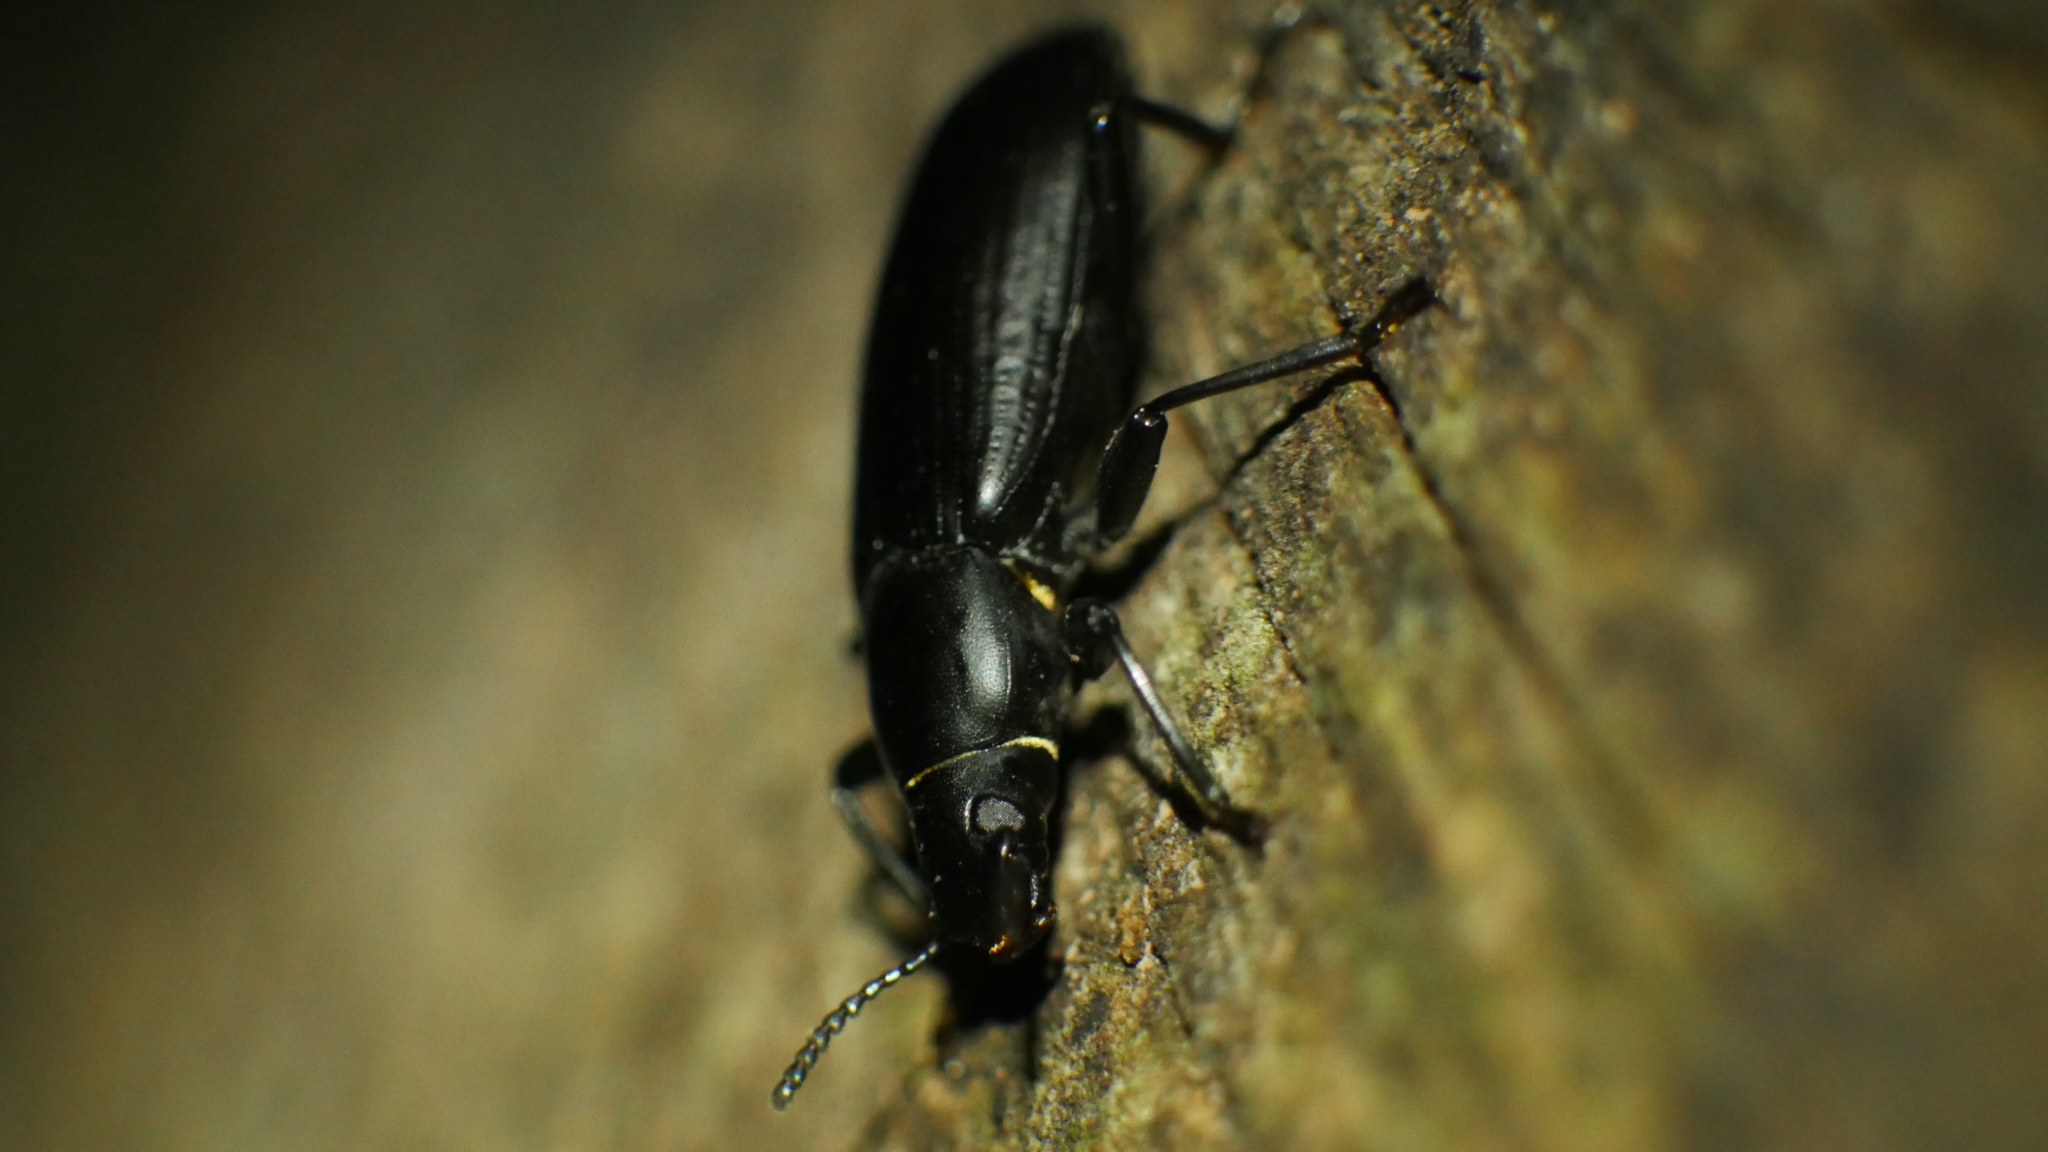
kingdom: Animalia
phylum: Arthropoda
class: Insecta
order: Coleoptera
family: Tenebrionidae
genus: Alobates
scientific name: Alobates
